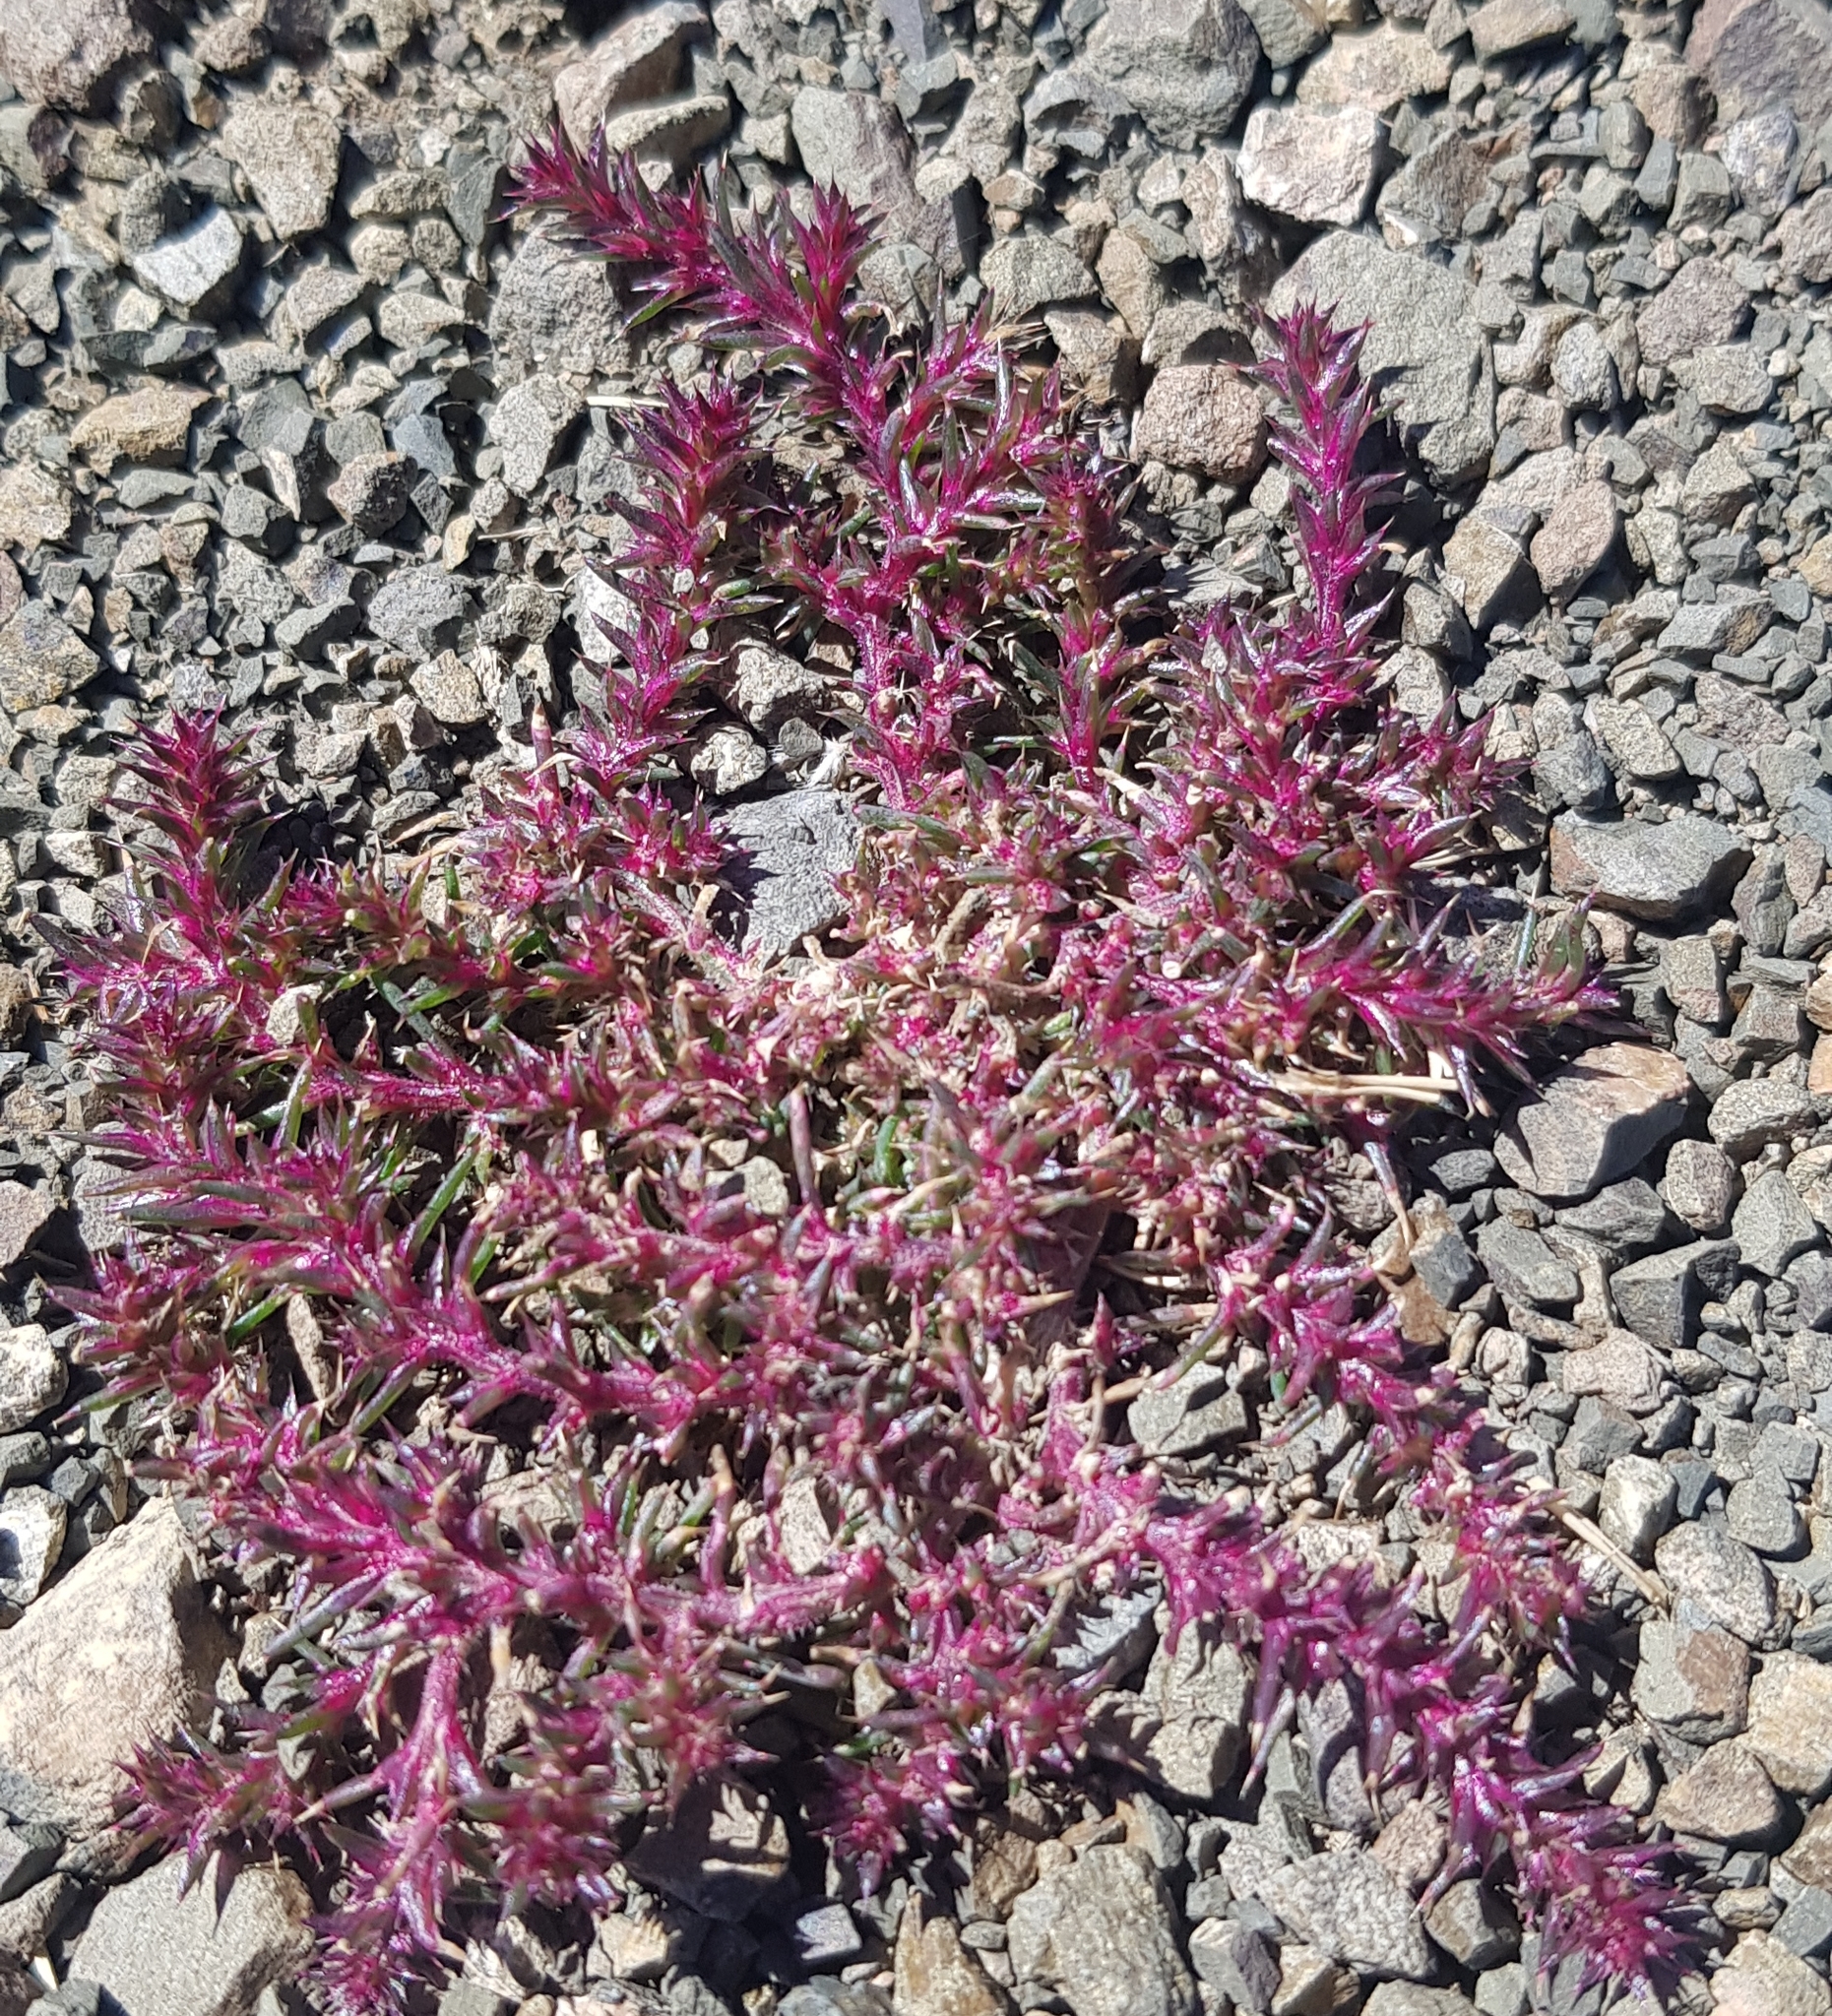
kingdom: Plantae
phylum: Tracheophyta
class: Magnoliopsida
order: Caryophyllales
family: Amaranthaceae
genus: Salsola
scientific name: Salsola tragus
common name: Prickly russian thistle
